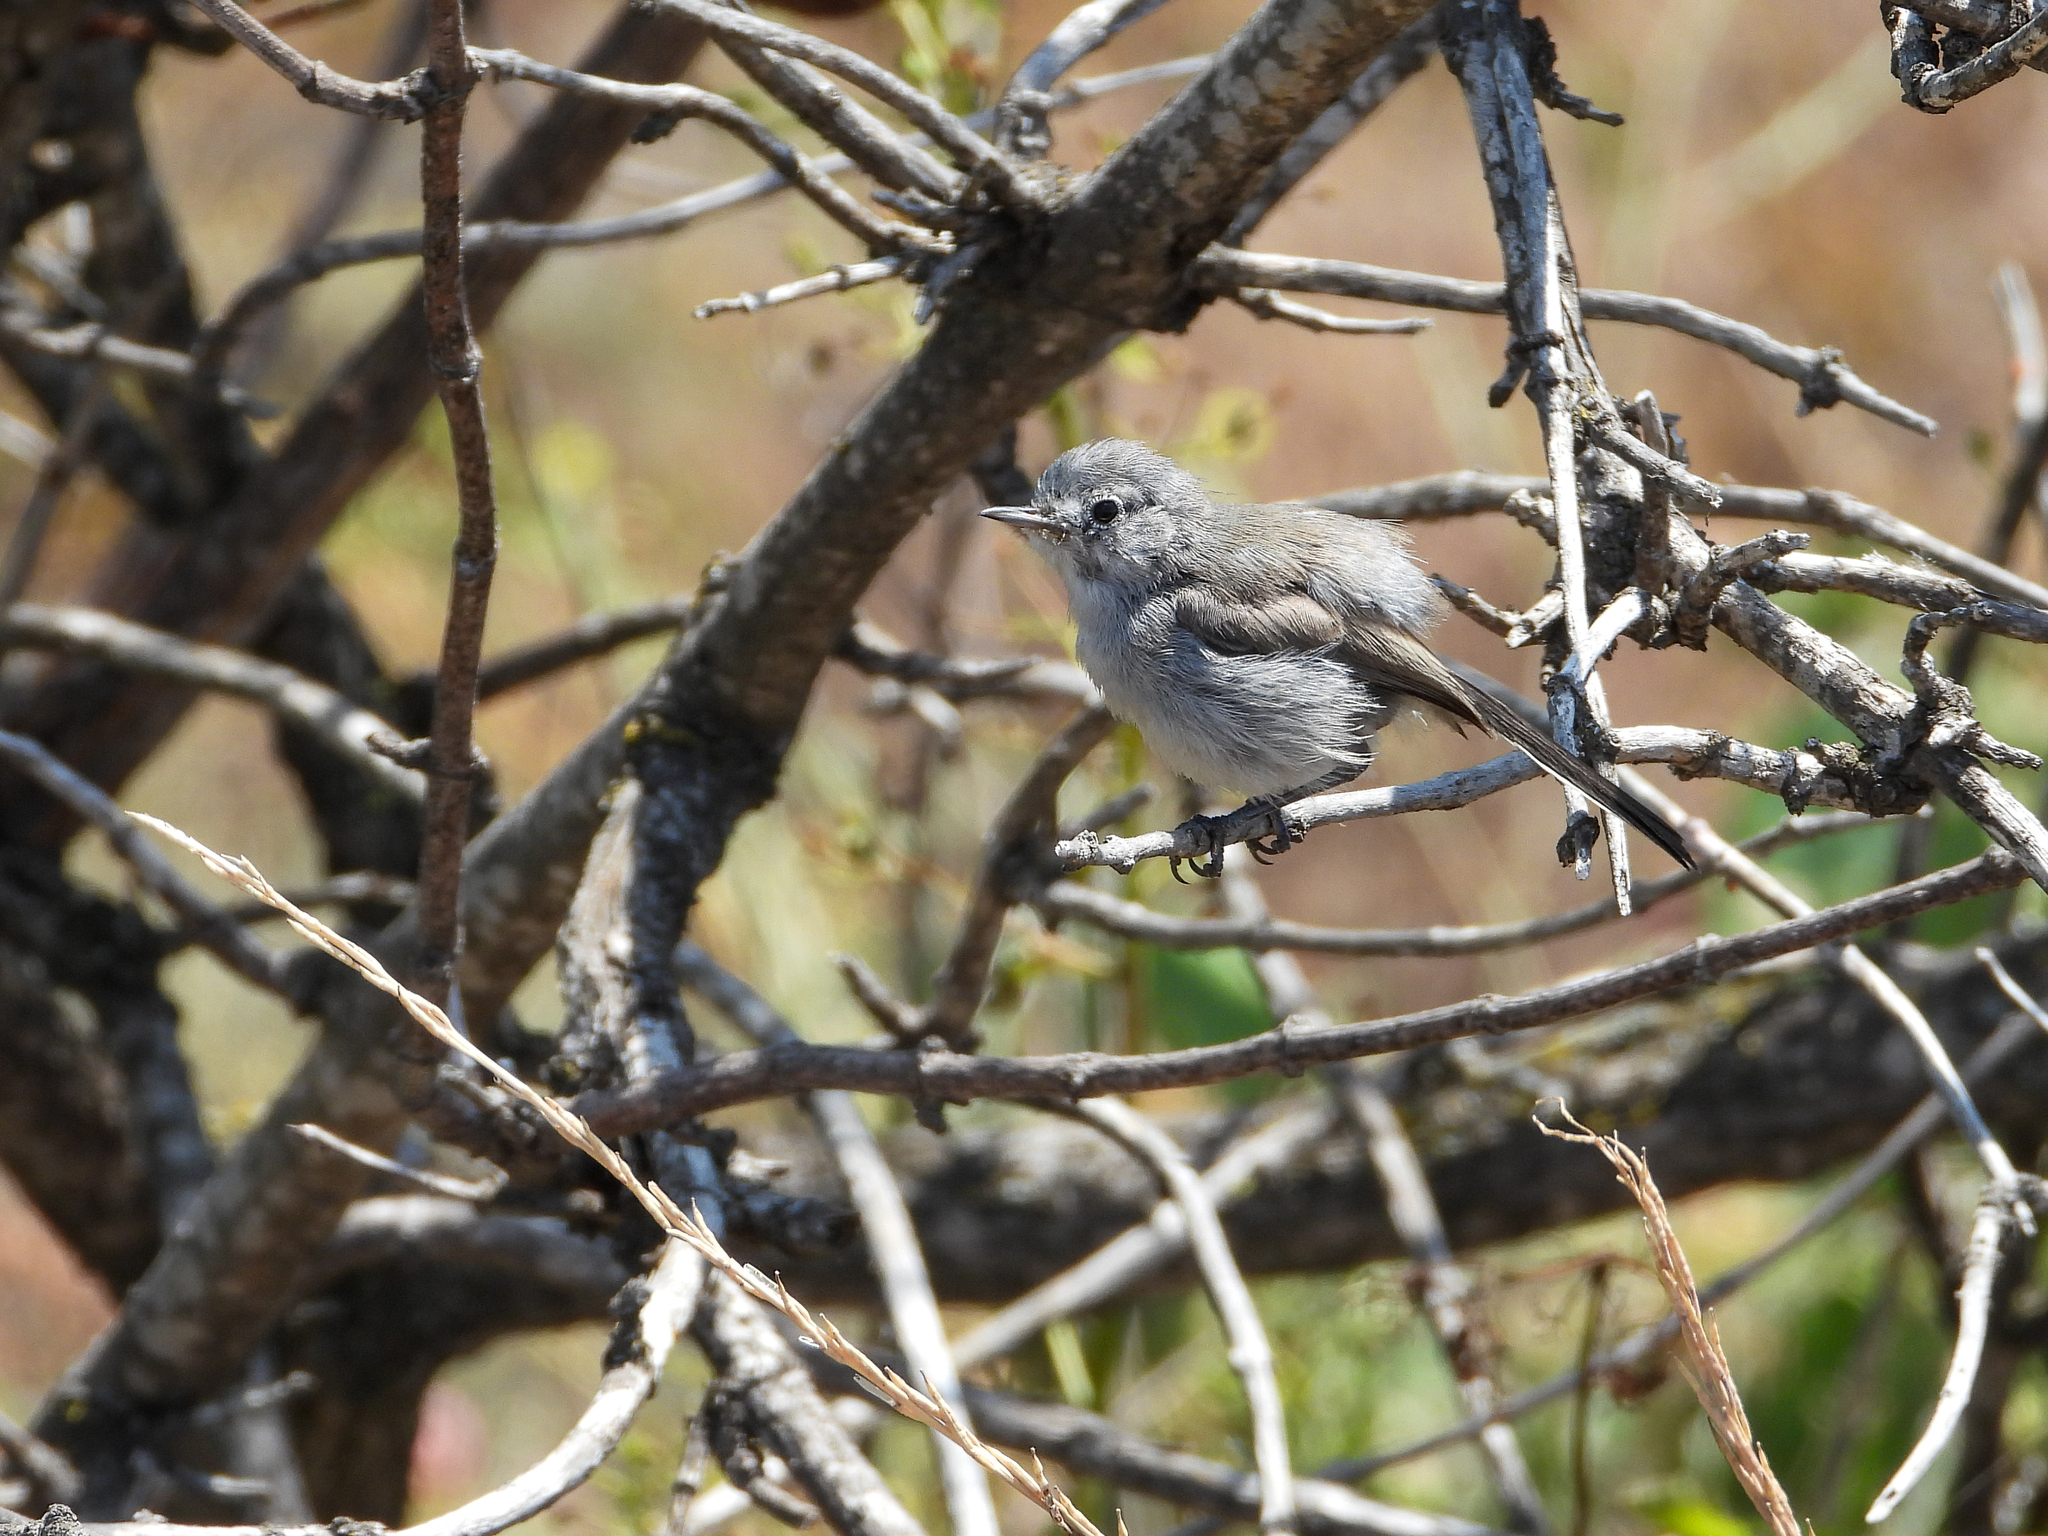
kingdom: Animalia
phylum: Chordata
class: Aves
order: Passeriformes
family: Polioptilidae
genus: Polioptila
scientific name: Polioptila californica
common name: California gnatcatcher
